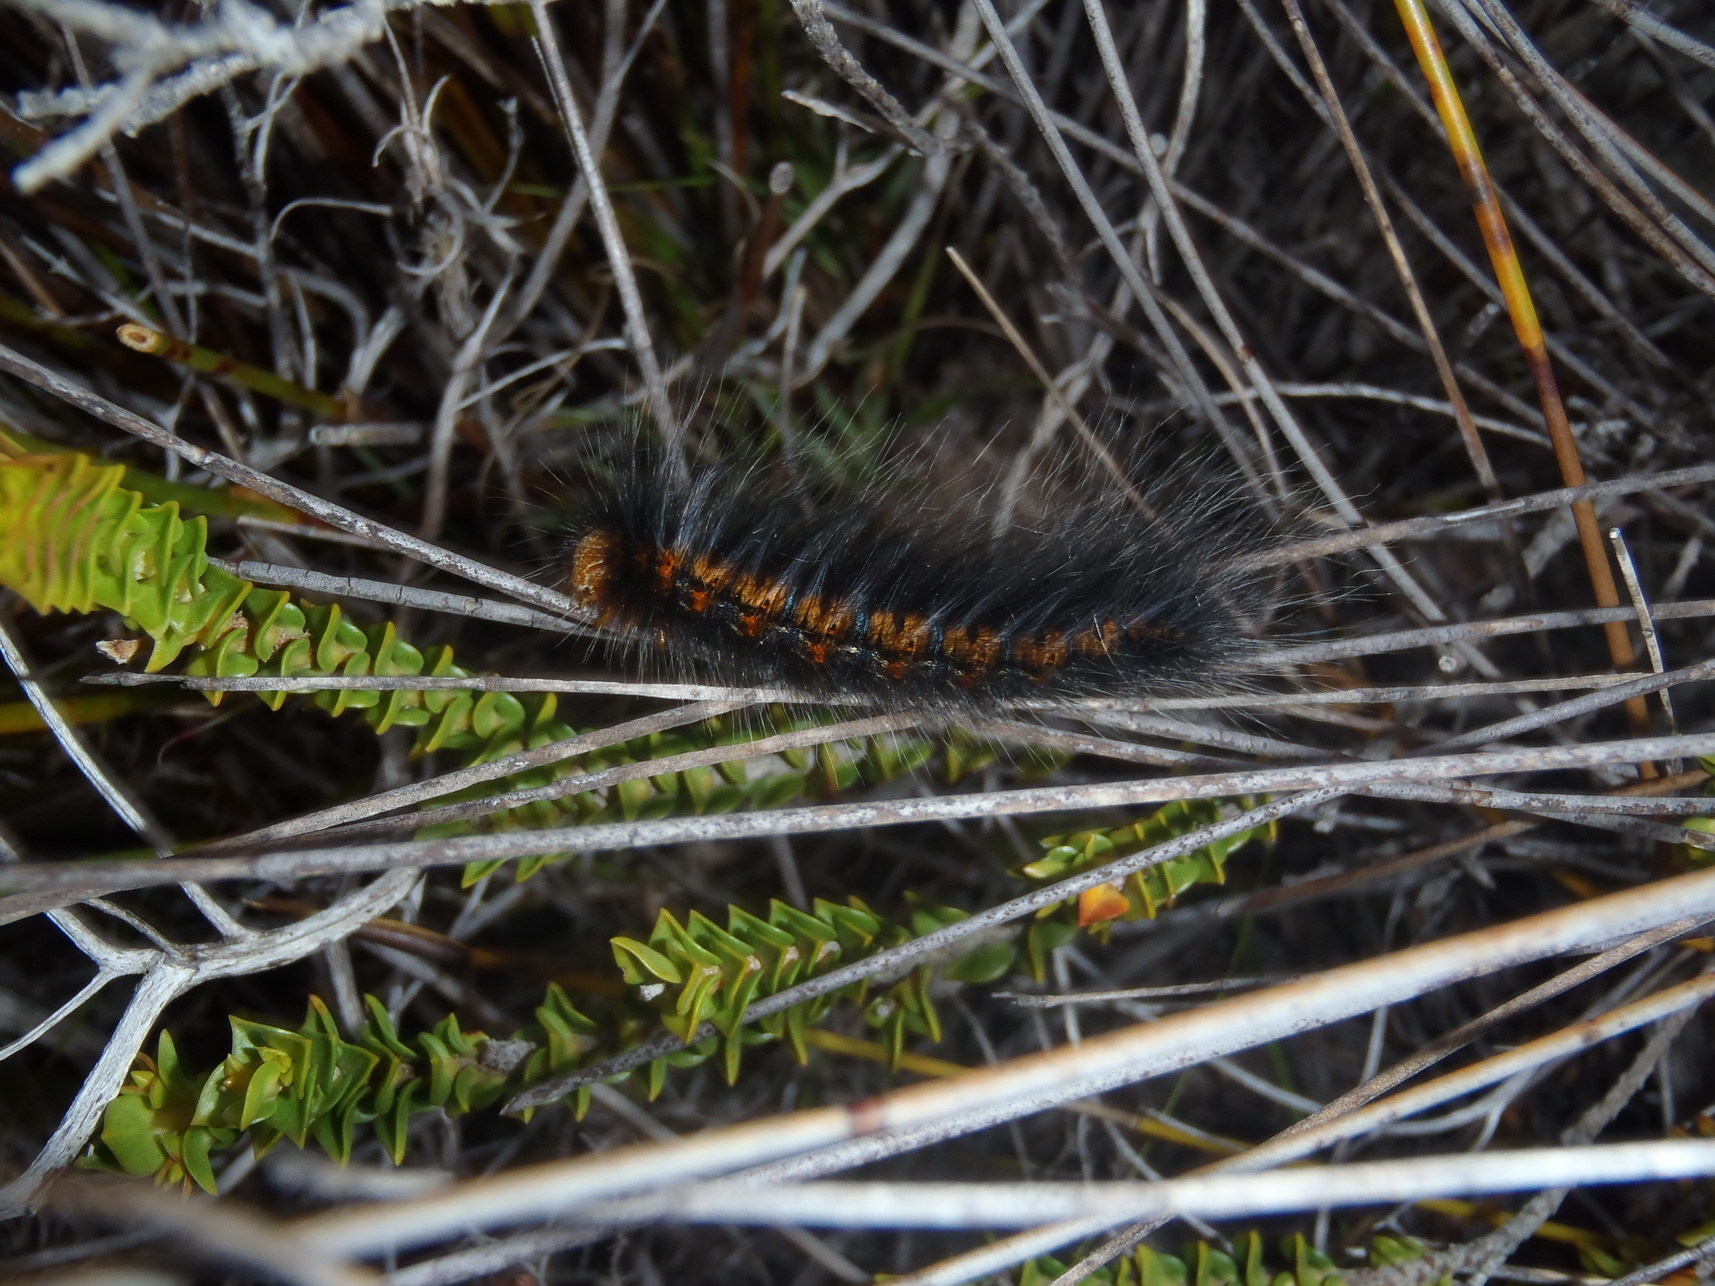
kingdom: Animalia
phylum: Arthropoda
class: Insecta
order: Lepidoptera
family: Lasiocampidae
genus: Mesocelis
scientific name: Mesocelis monticola
